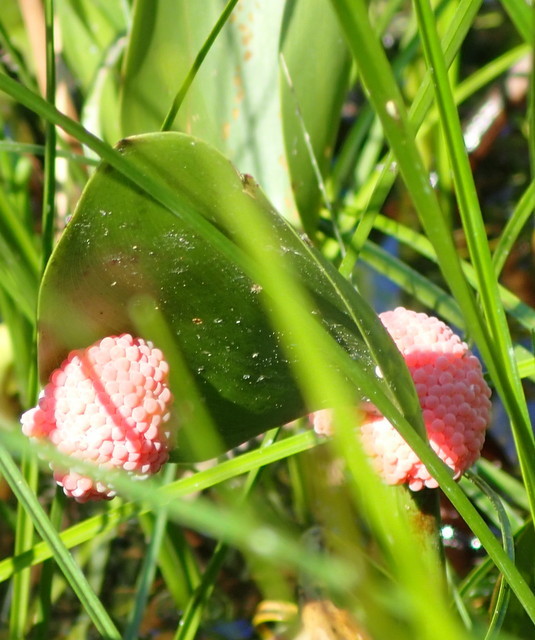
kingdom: Animalia
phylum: Mollusca
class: Gastropoda
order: Architaenioglossa
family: Ampullariidae
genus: Pomacea
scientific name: Pomacea maculata
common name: Giant applesnail
